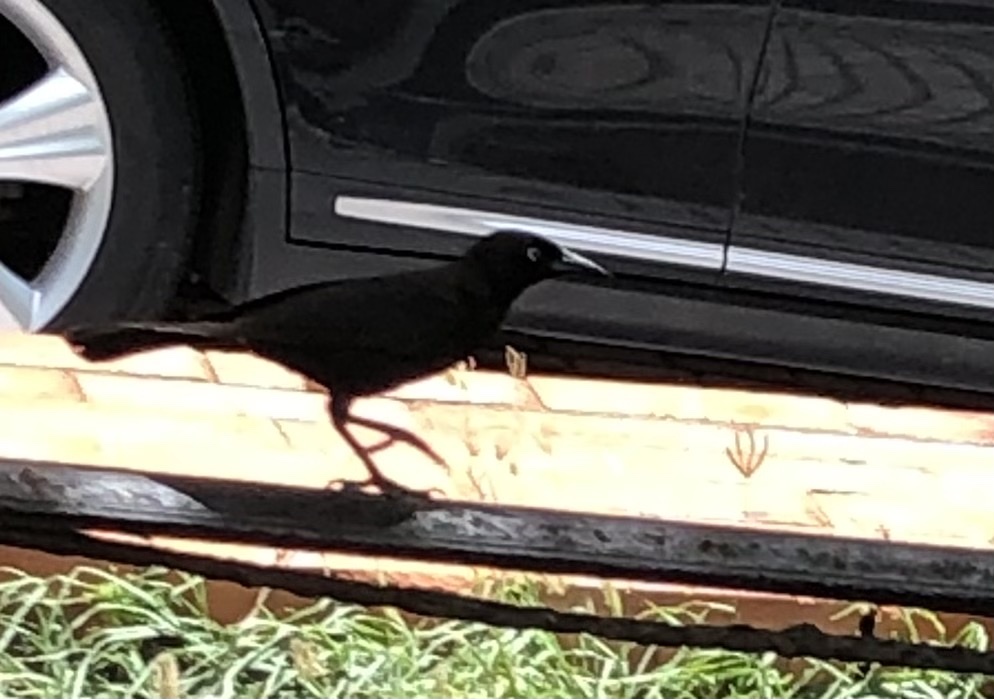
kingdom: Animalia
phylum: Chordata
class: Aves
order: Passeriformes
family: Icteridae
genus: Quiscalus
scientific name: Quiscalus niger
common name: Greater antillean grackle
